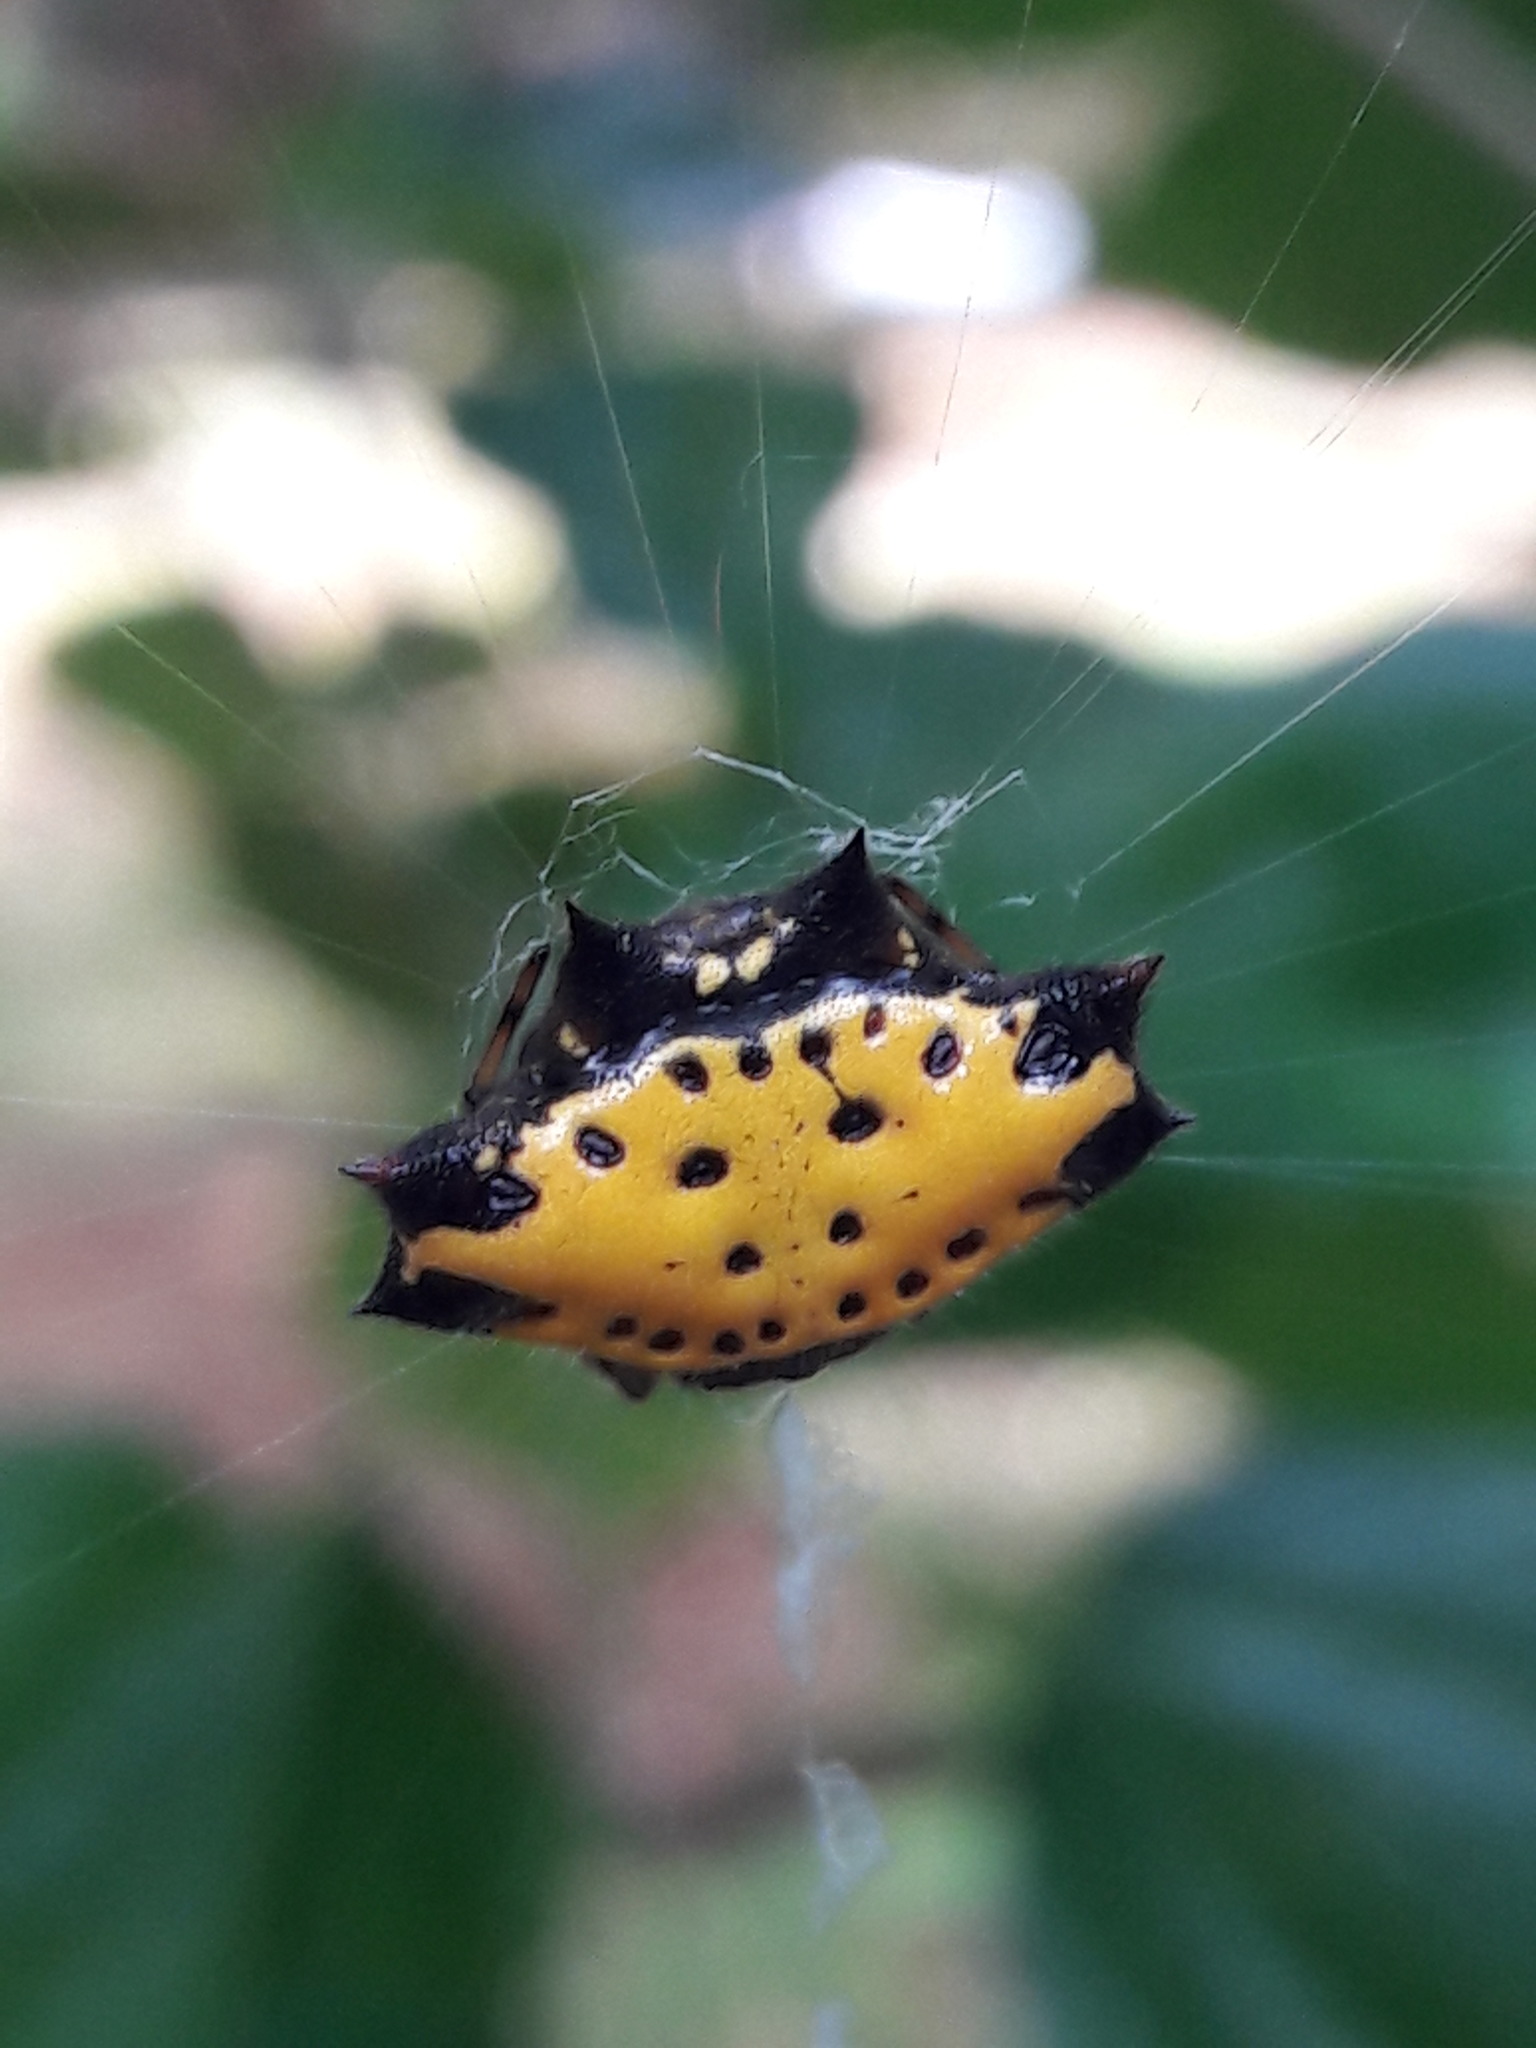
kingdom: Animalia
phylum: Arthropoda
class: Arachnida
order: Araneae
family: Araneidae
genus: Gasteracantha
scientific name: Gasteracantha cancriformis
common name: Orb weavers
